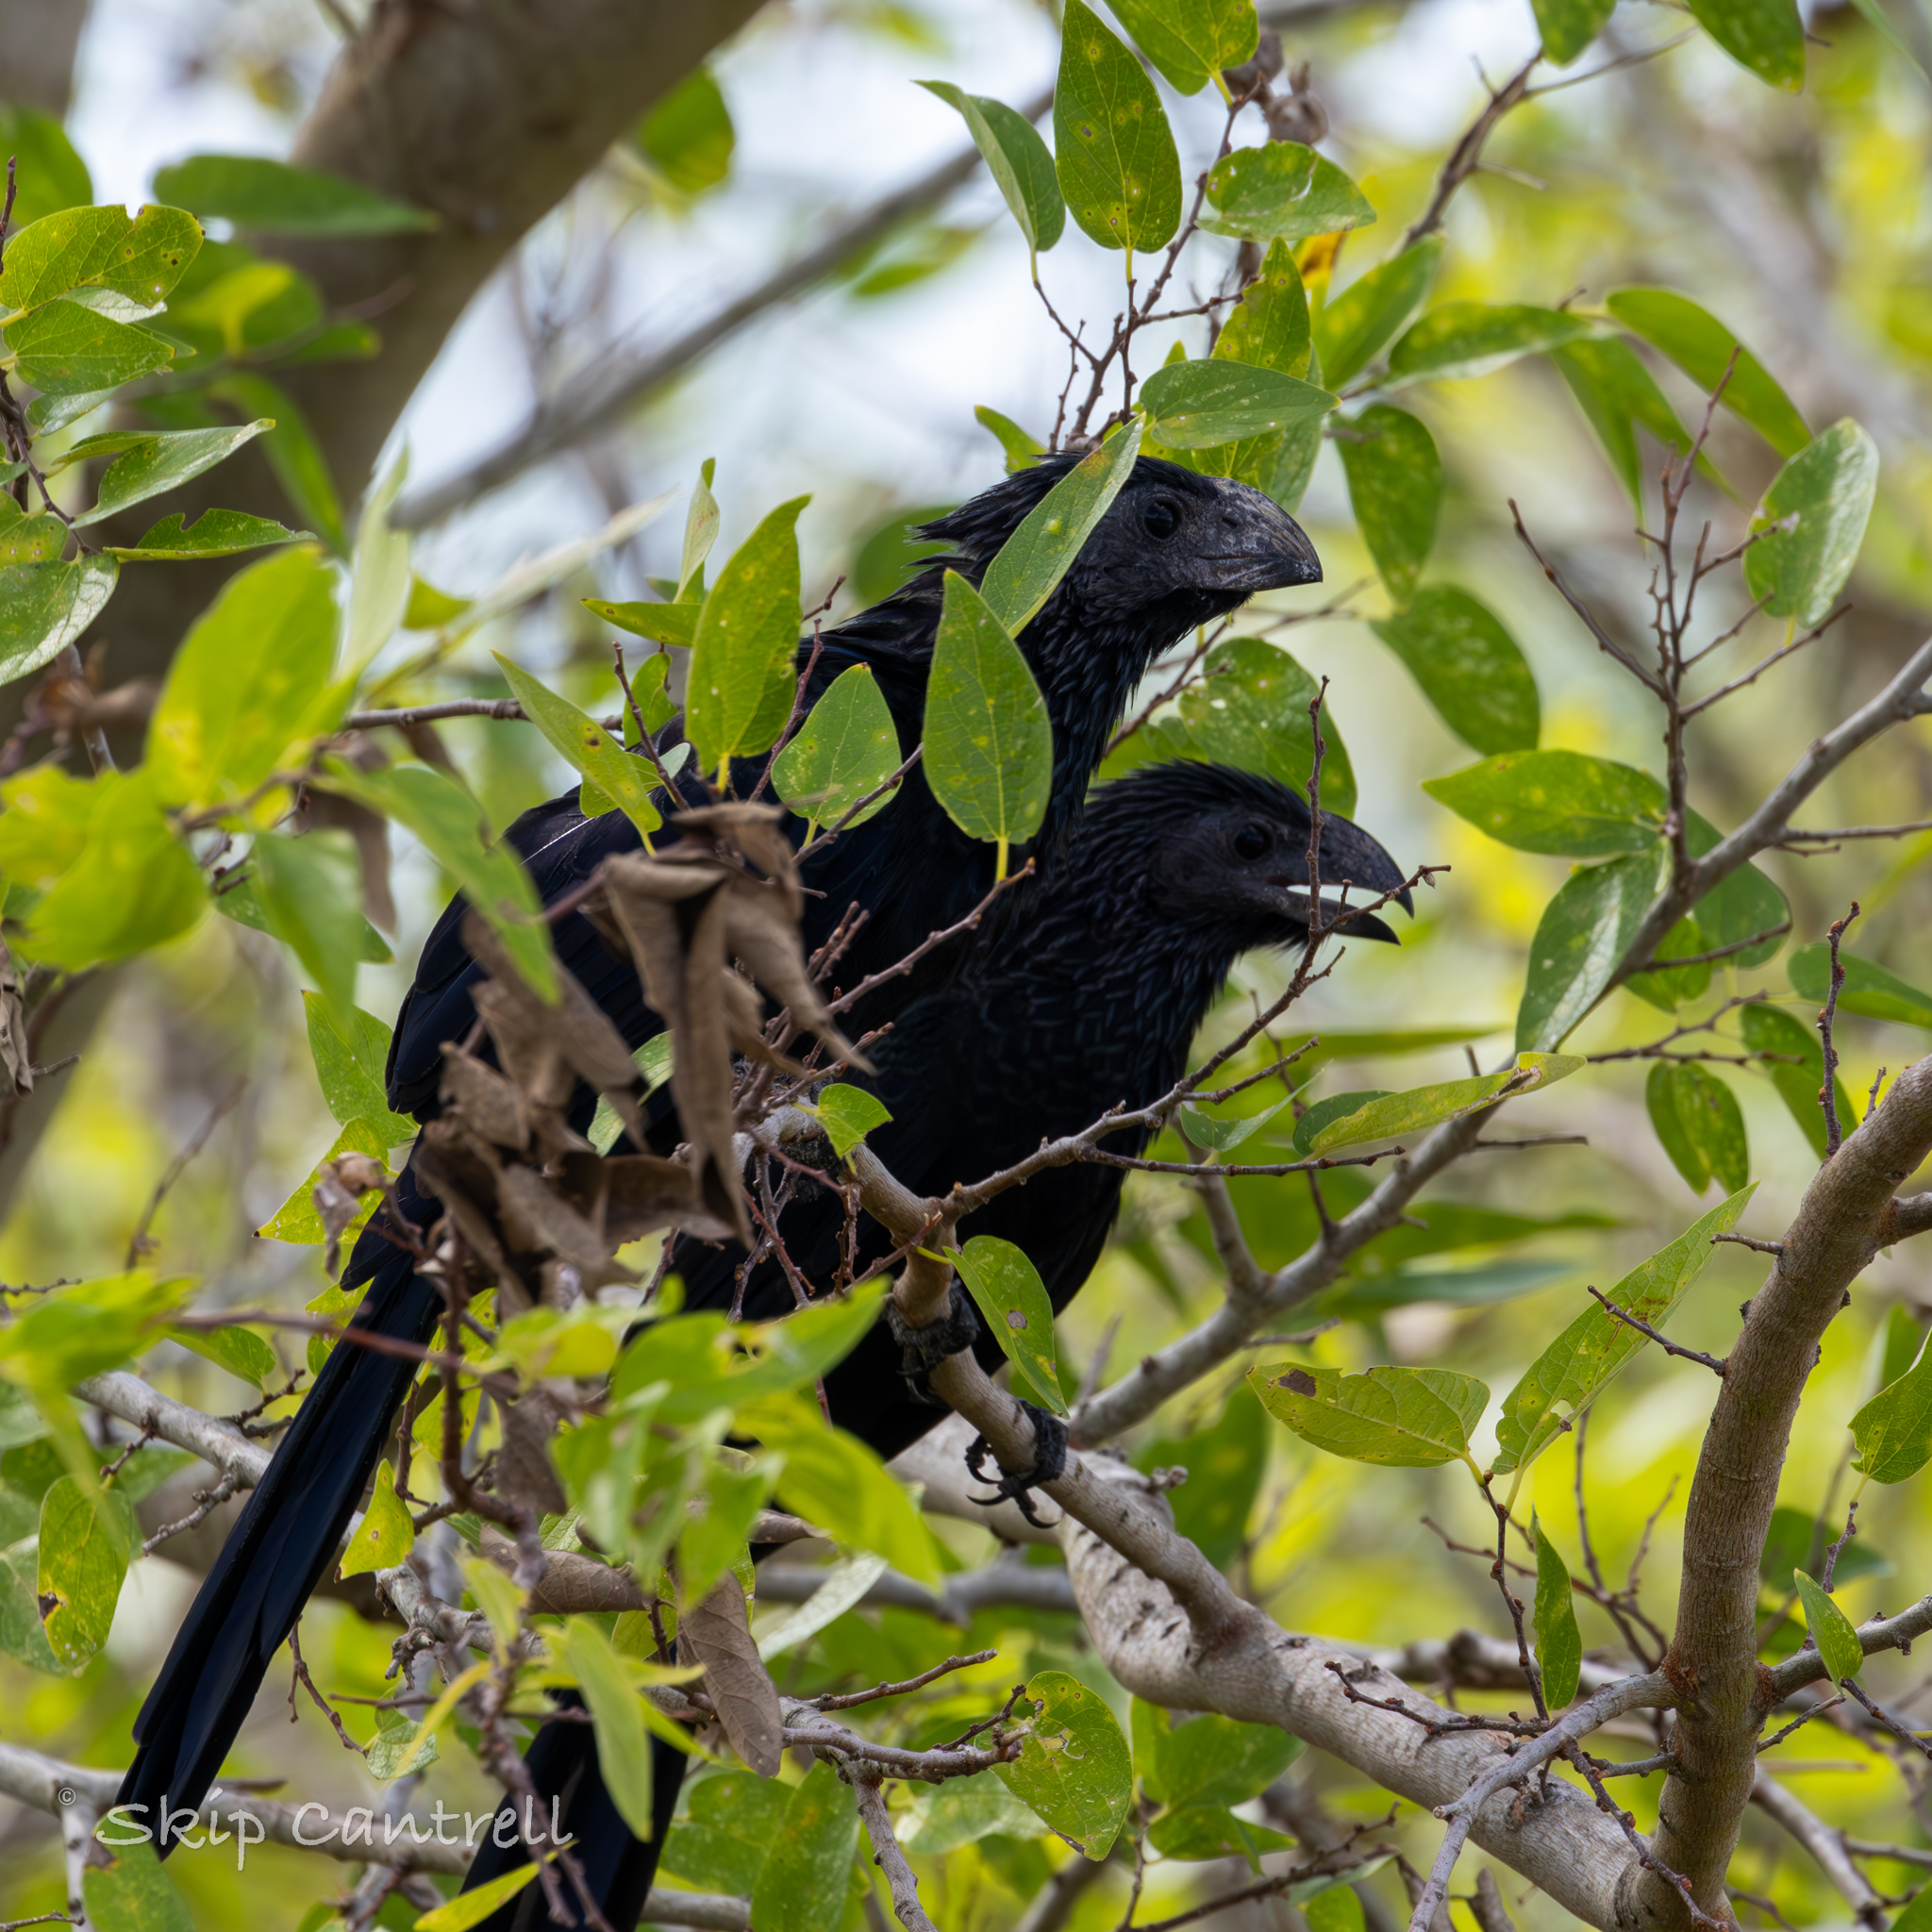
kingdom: Animalia
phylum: Chordata
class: Aves
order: Cuculiformes
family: Cuculidae
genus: Crotophaga
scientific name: Crotophaga sulcirostris
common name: Groove-billed ani
